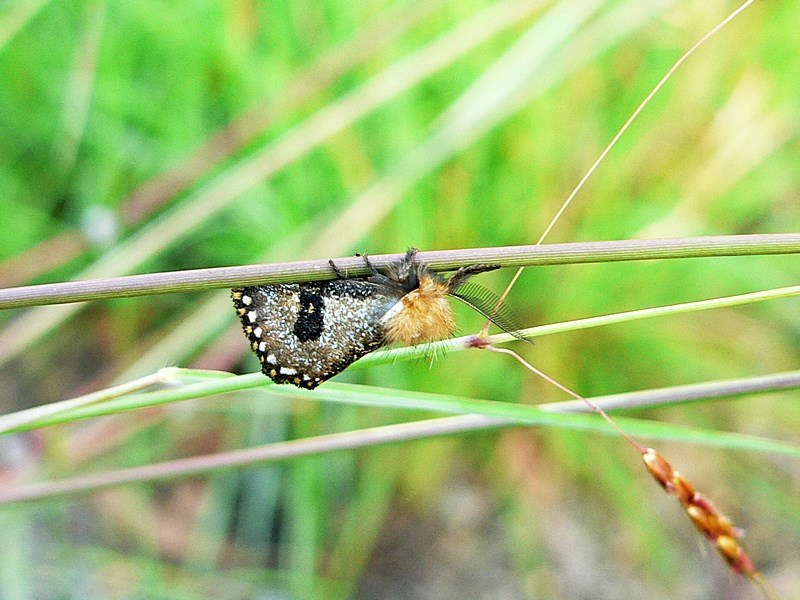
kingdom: Animalia
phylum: Arthropoda
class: Insecta
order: Lepidoptera
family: Notodontidae
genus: Epicoma
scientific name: Epicoma contristis
